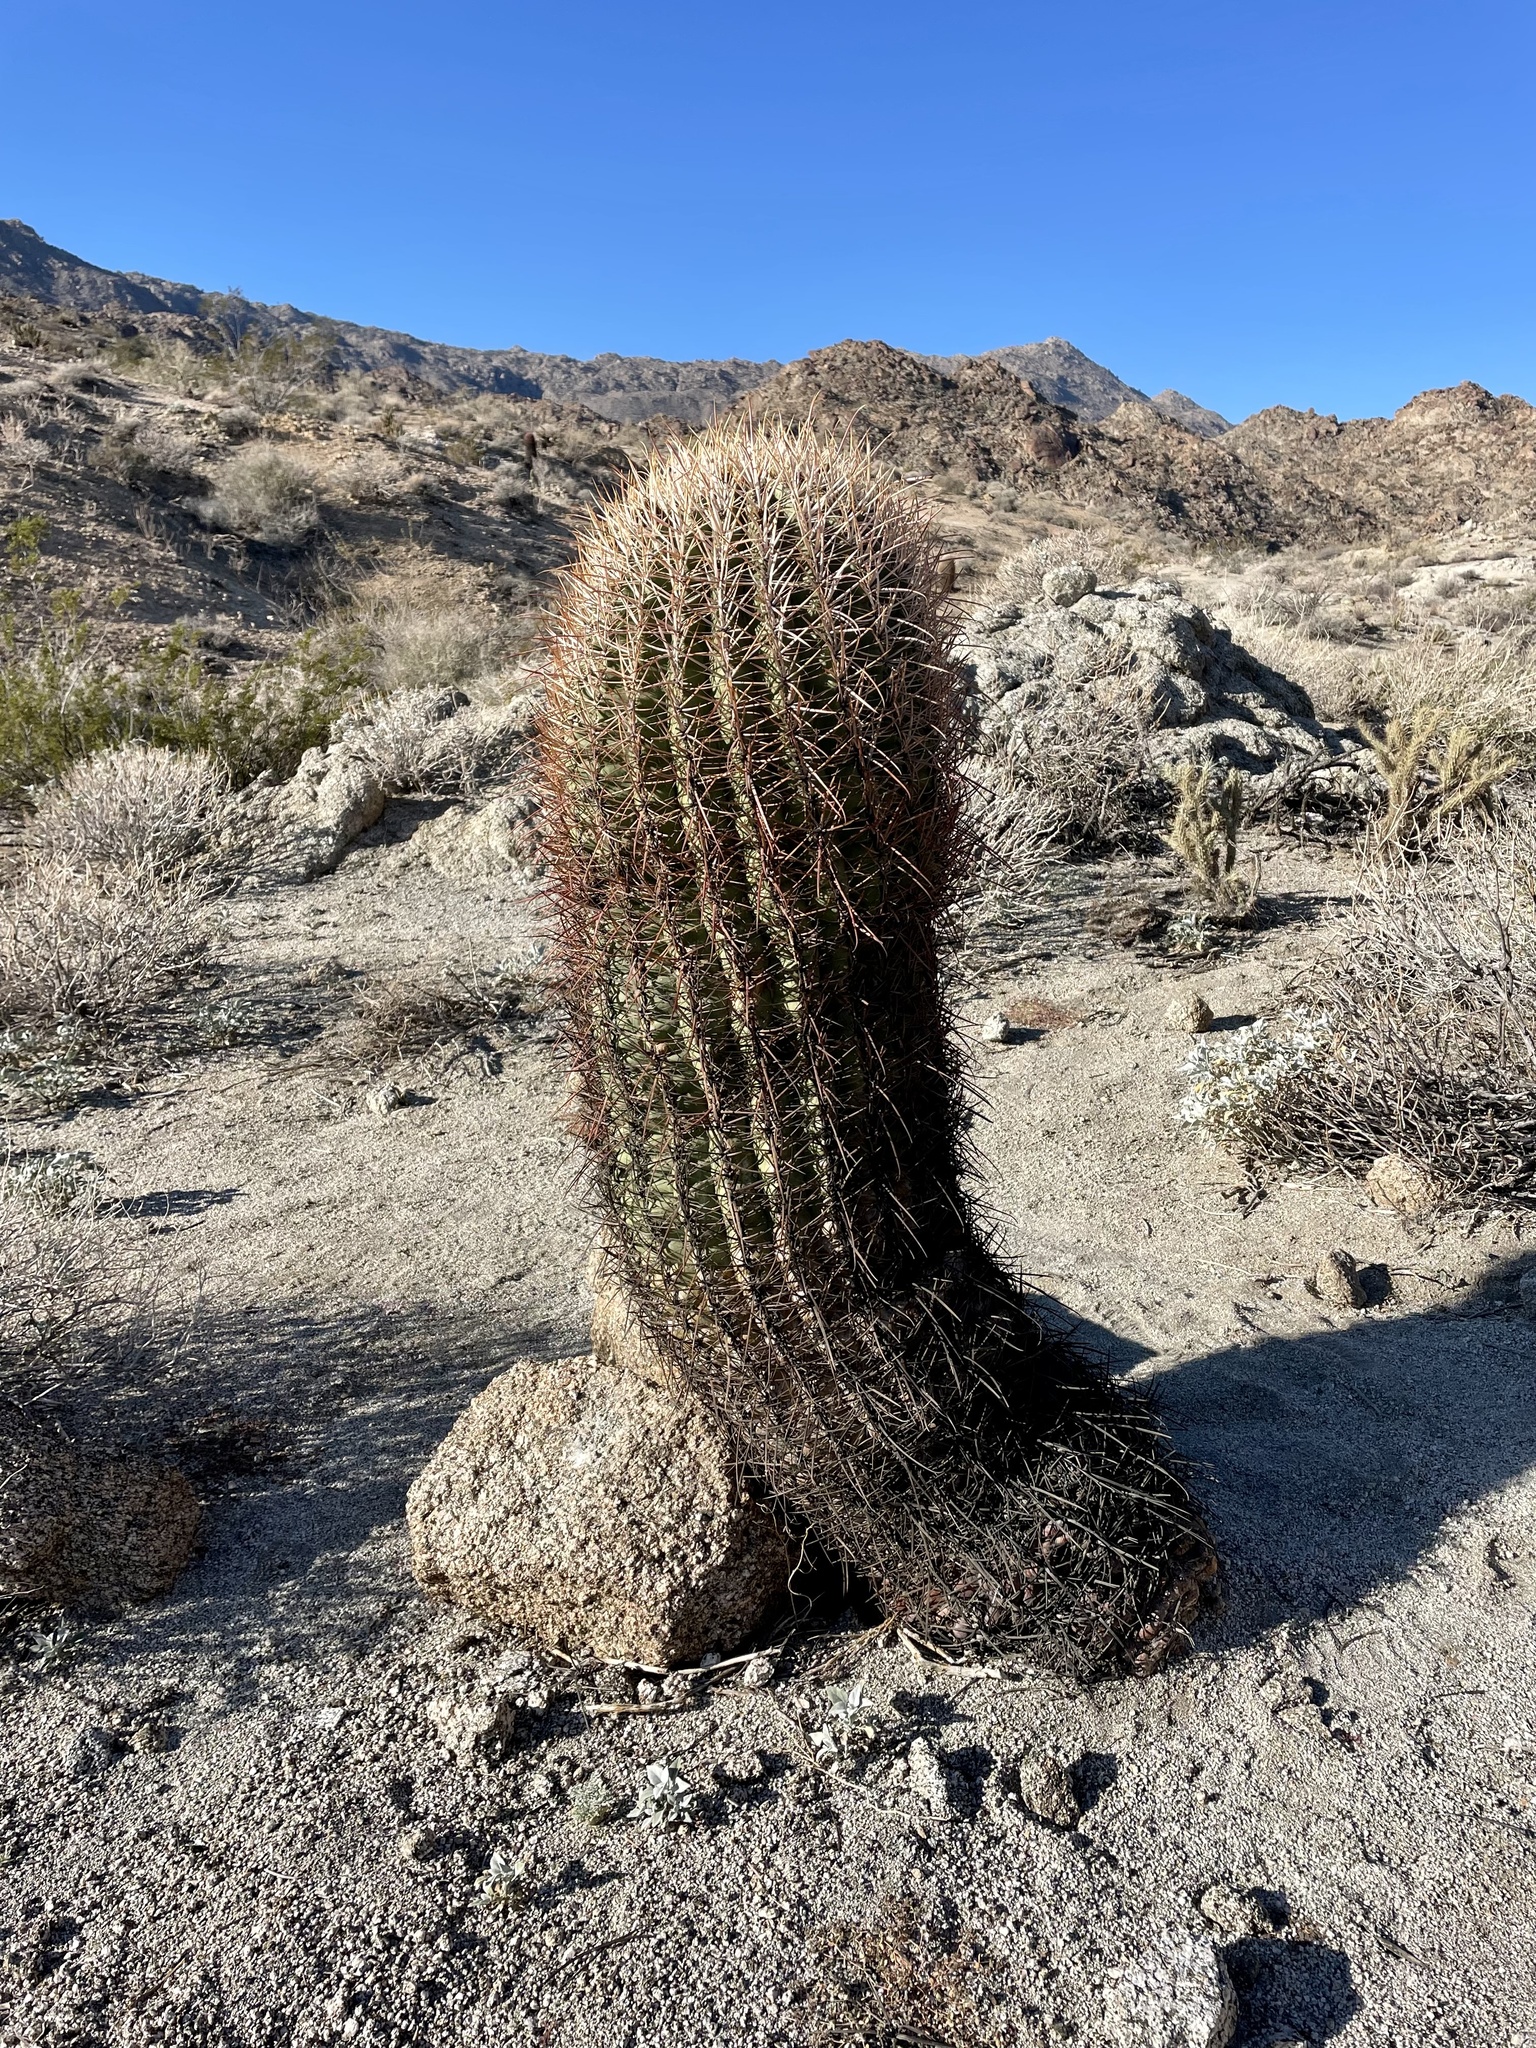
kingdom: Plantae
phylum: Tracheophyta
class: Magnoliopsida
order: Caryophyllales
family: Cactaceae
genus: Ferocactus
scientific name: Ferocactus cylindraceus
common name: California barrel cactus
